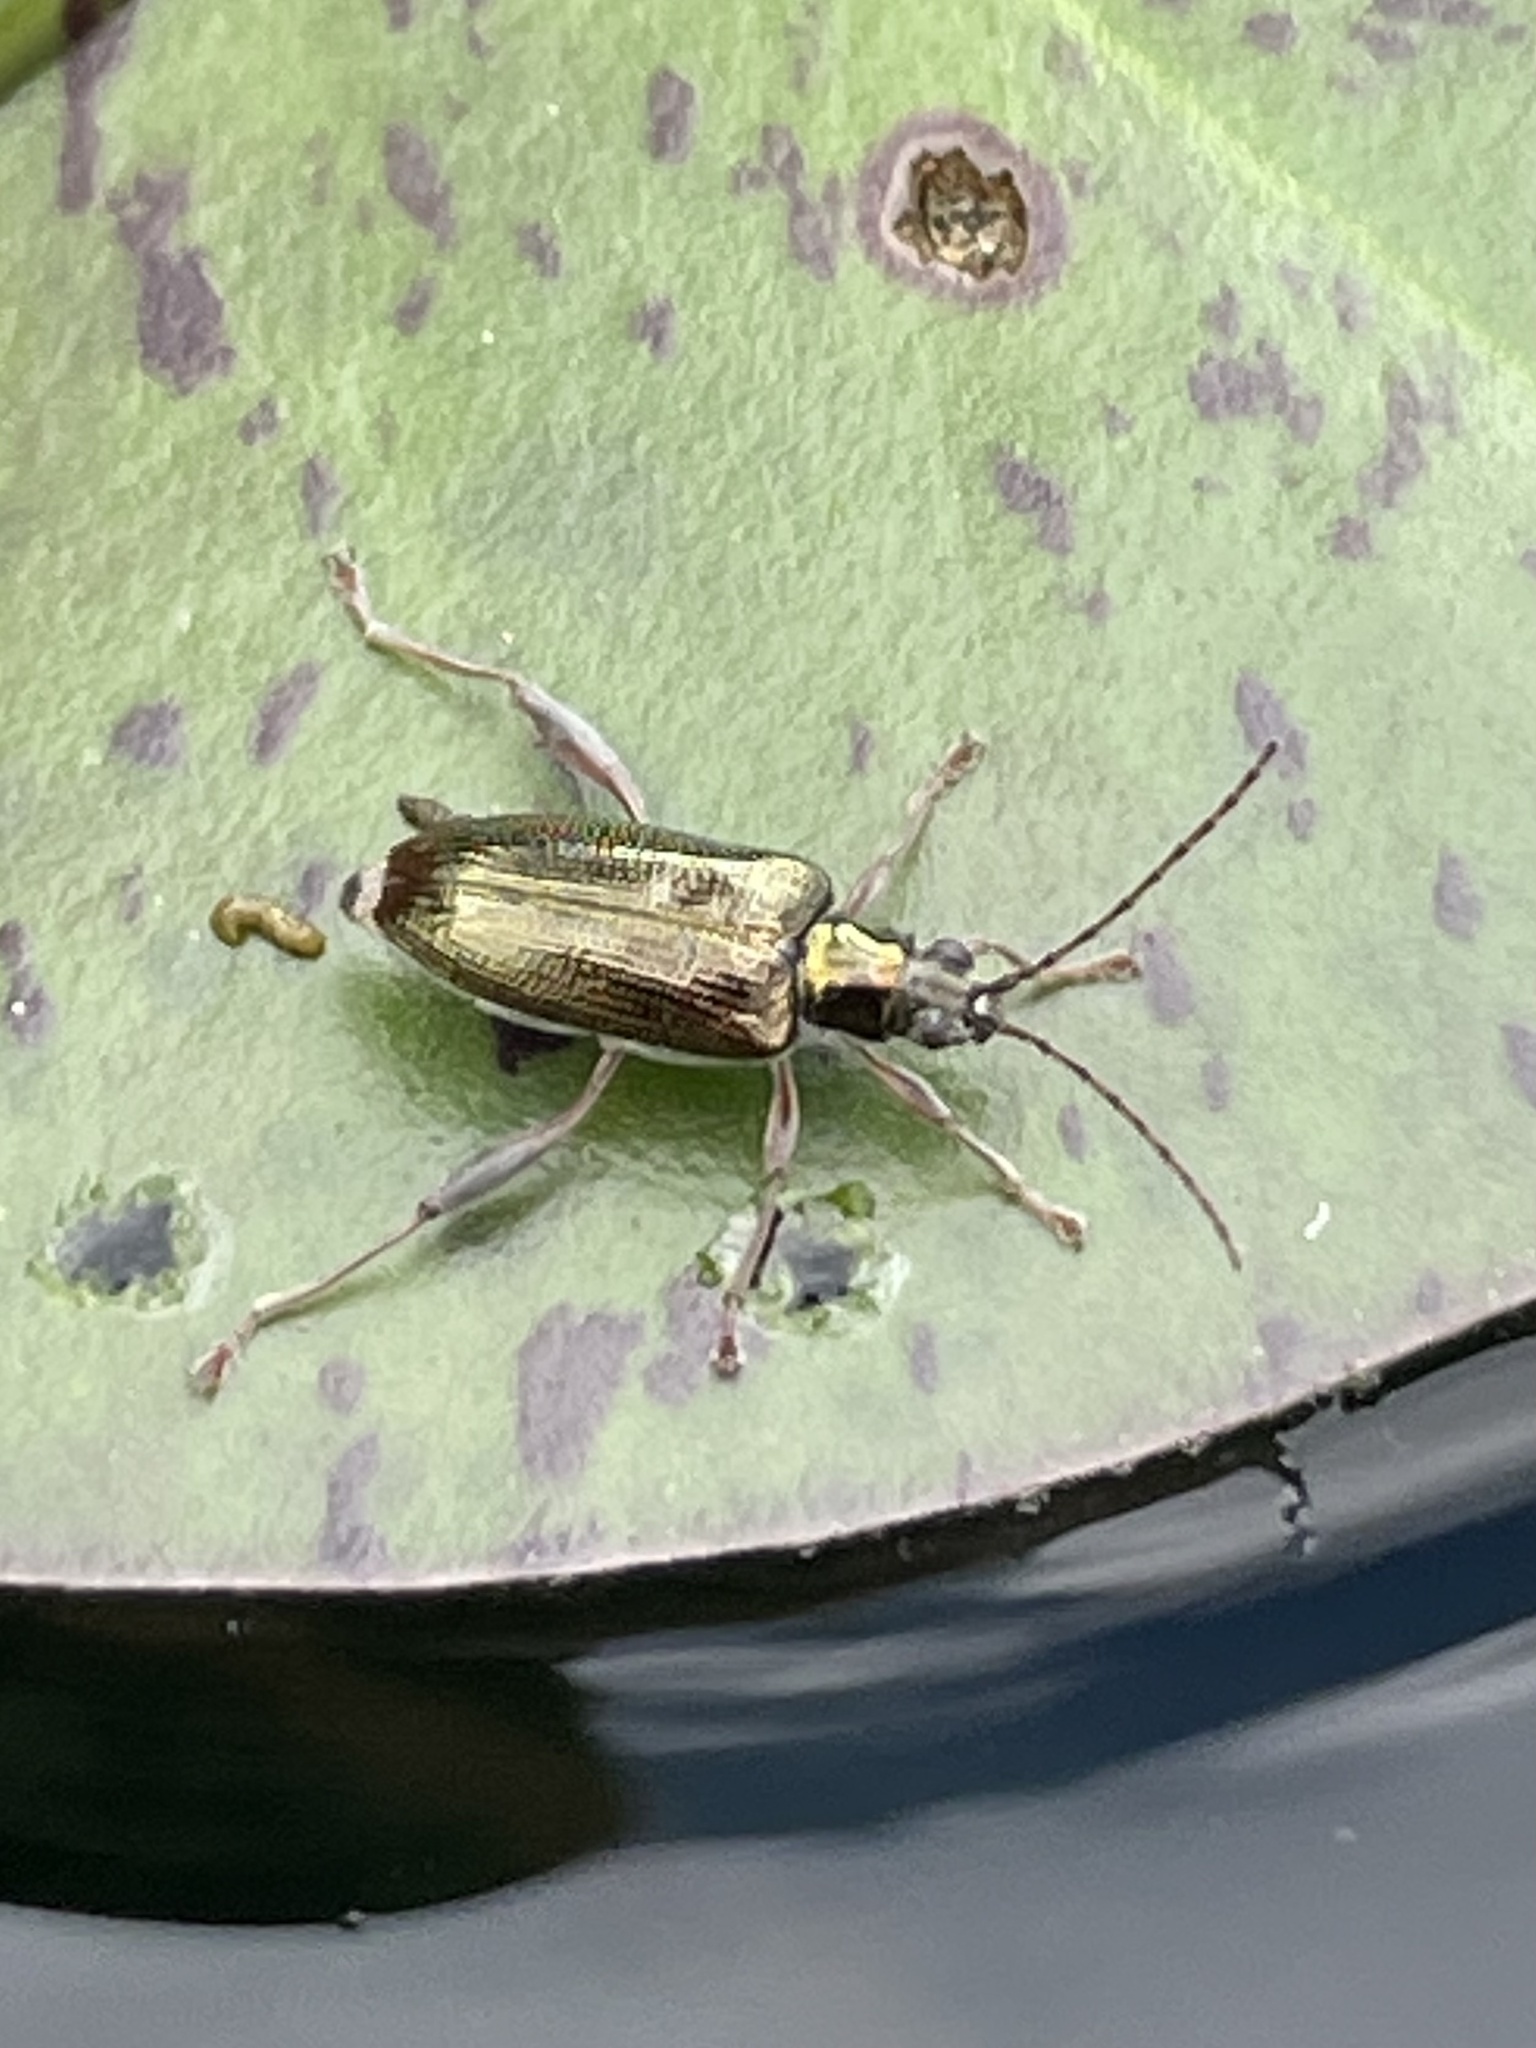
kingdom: Animalia
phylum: Arthropoda
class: Insecta
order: Coleoptera
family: Chrysomelidae
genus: Donacia
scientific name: Donacia cincticornis
